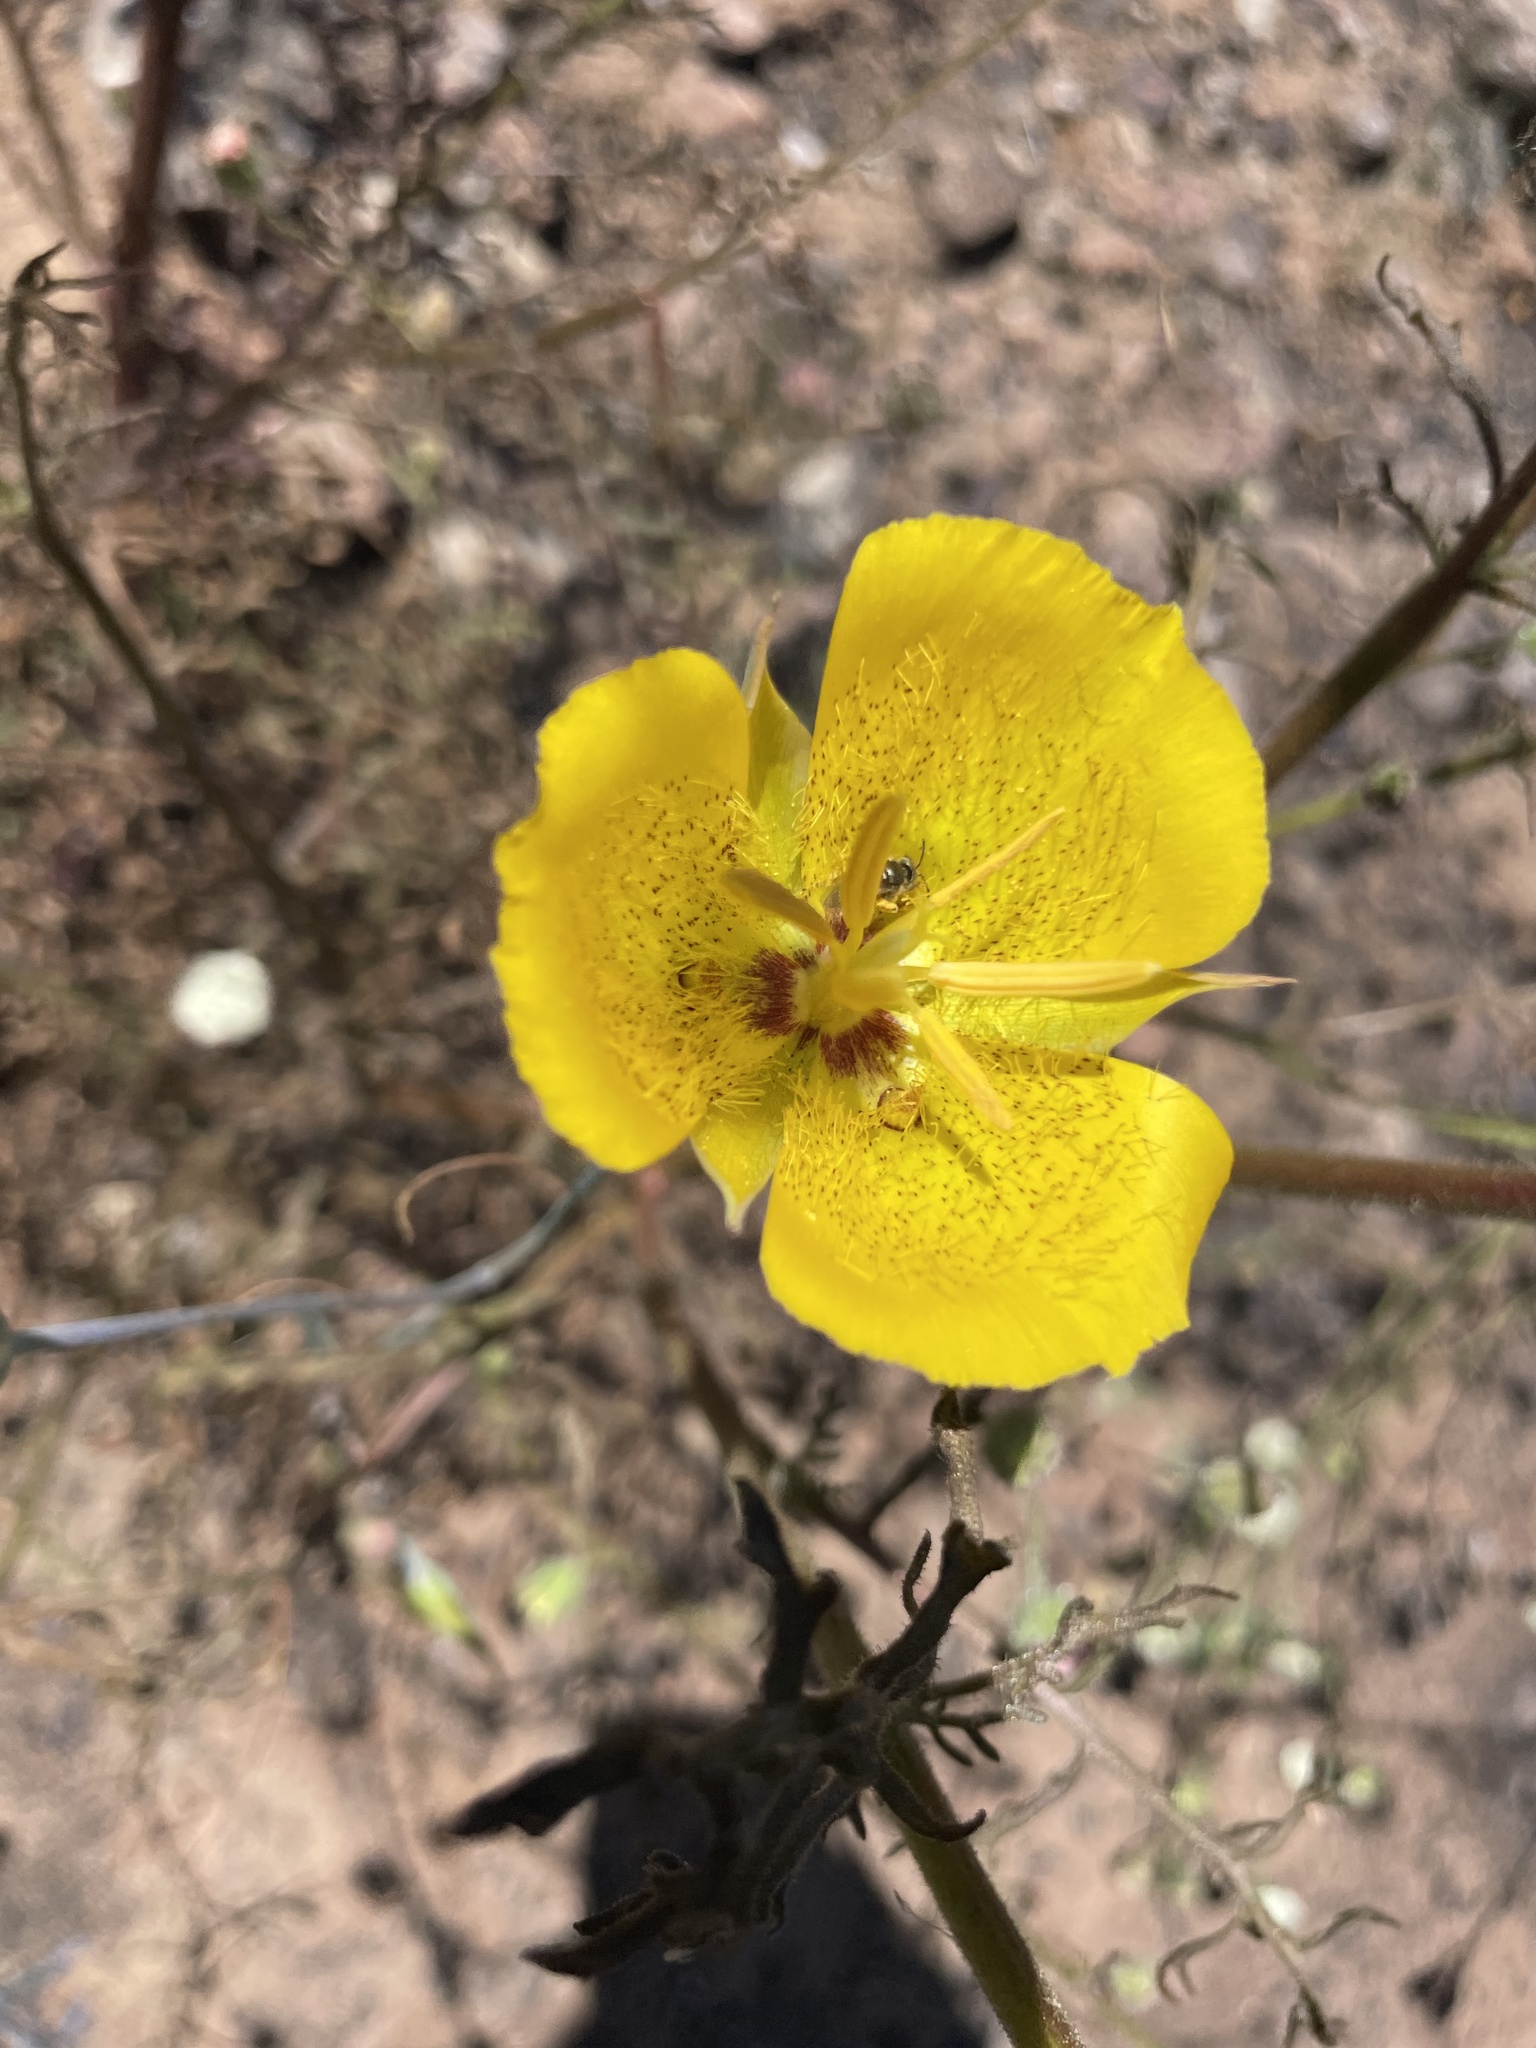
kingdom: Plantae
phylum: Tracheophyta
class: Liliopsida
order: Liliales
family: Liliaceae
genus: Calochortus
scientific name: Calochortus weedii
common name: Weed's mariposa-lily
